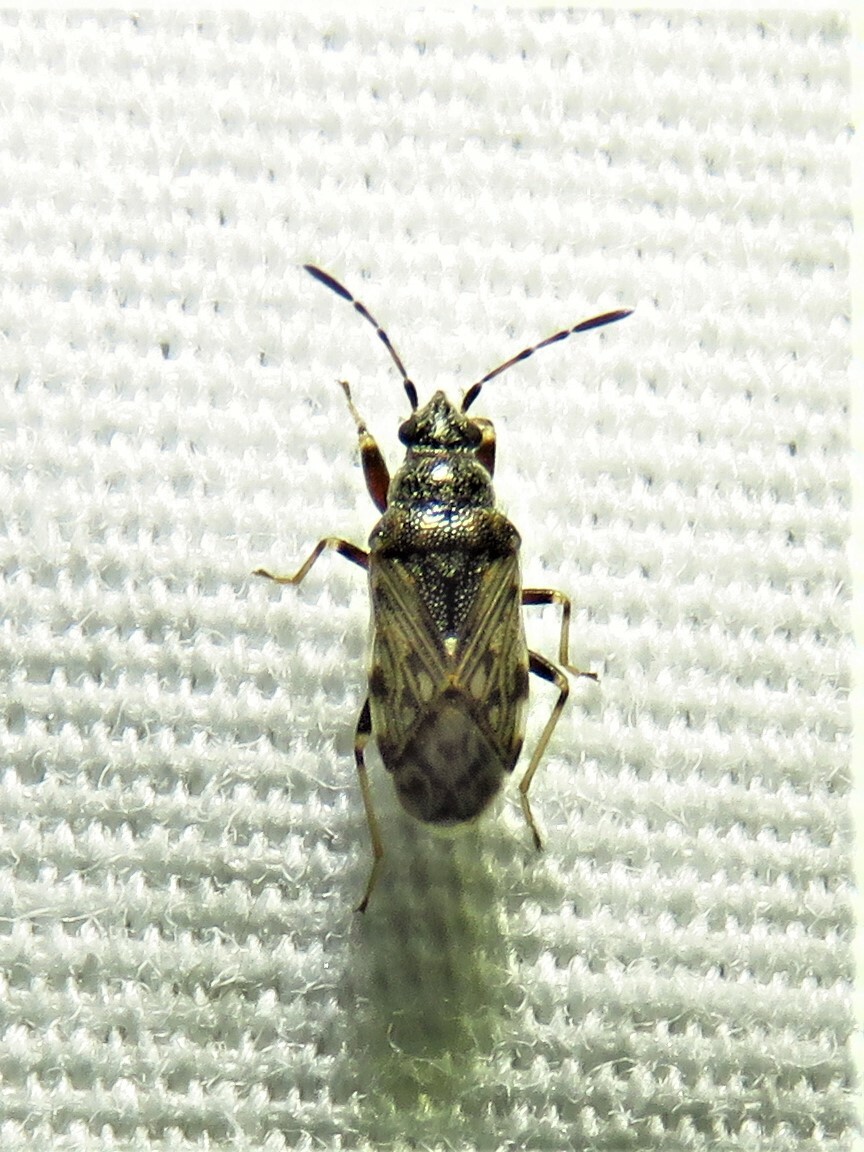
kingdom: Animalia
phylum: Arthropoda
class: Insecta
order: Hemiptera
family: Rhyparochromidae
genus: Prytanes
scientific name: Prytanes confusa
